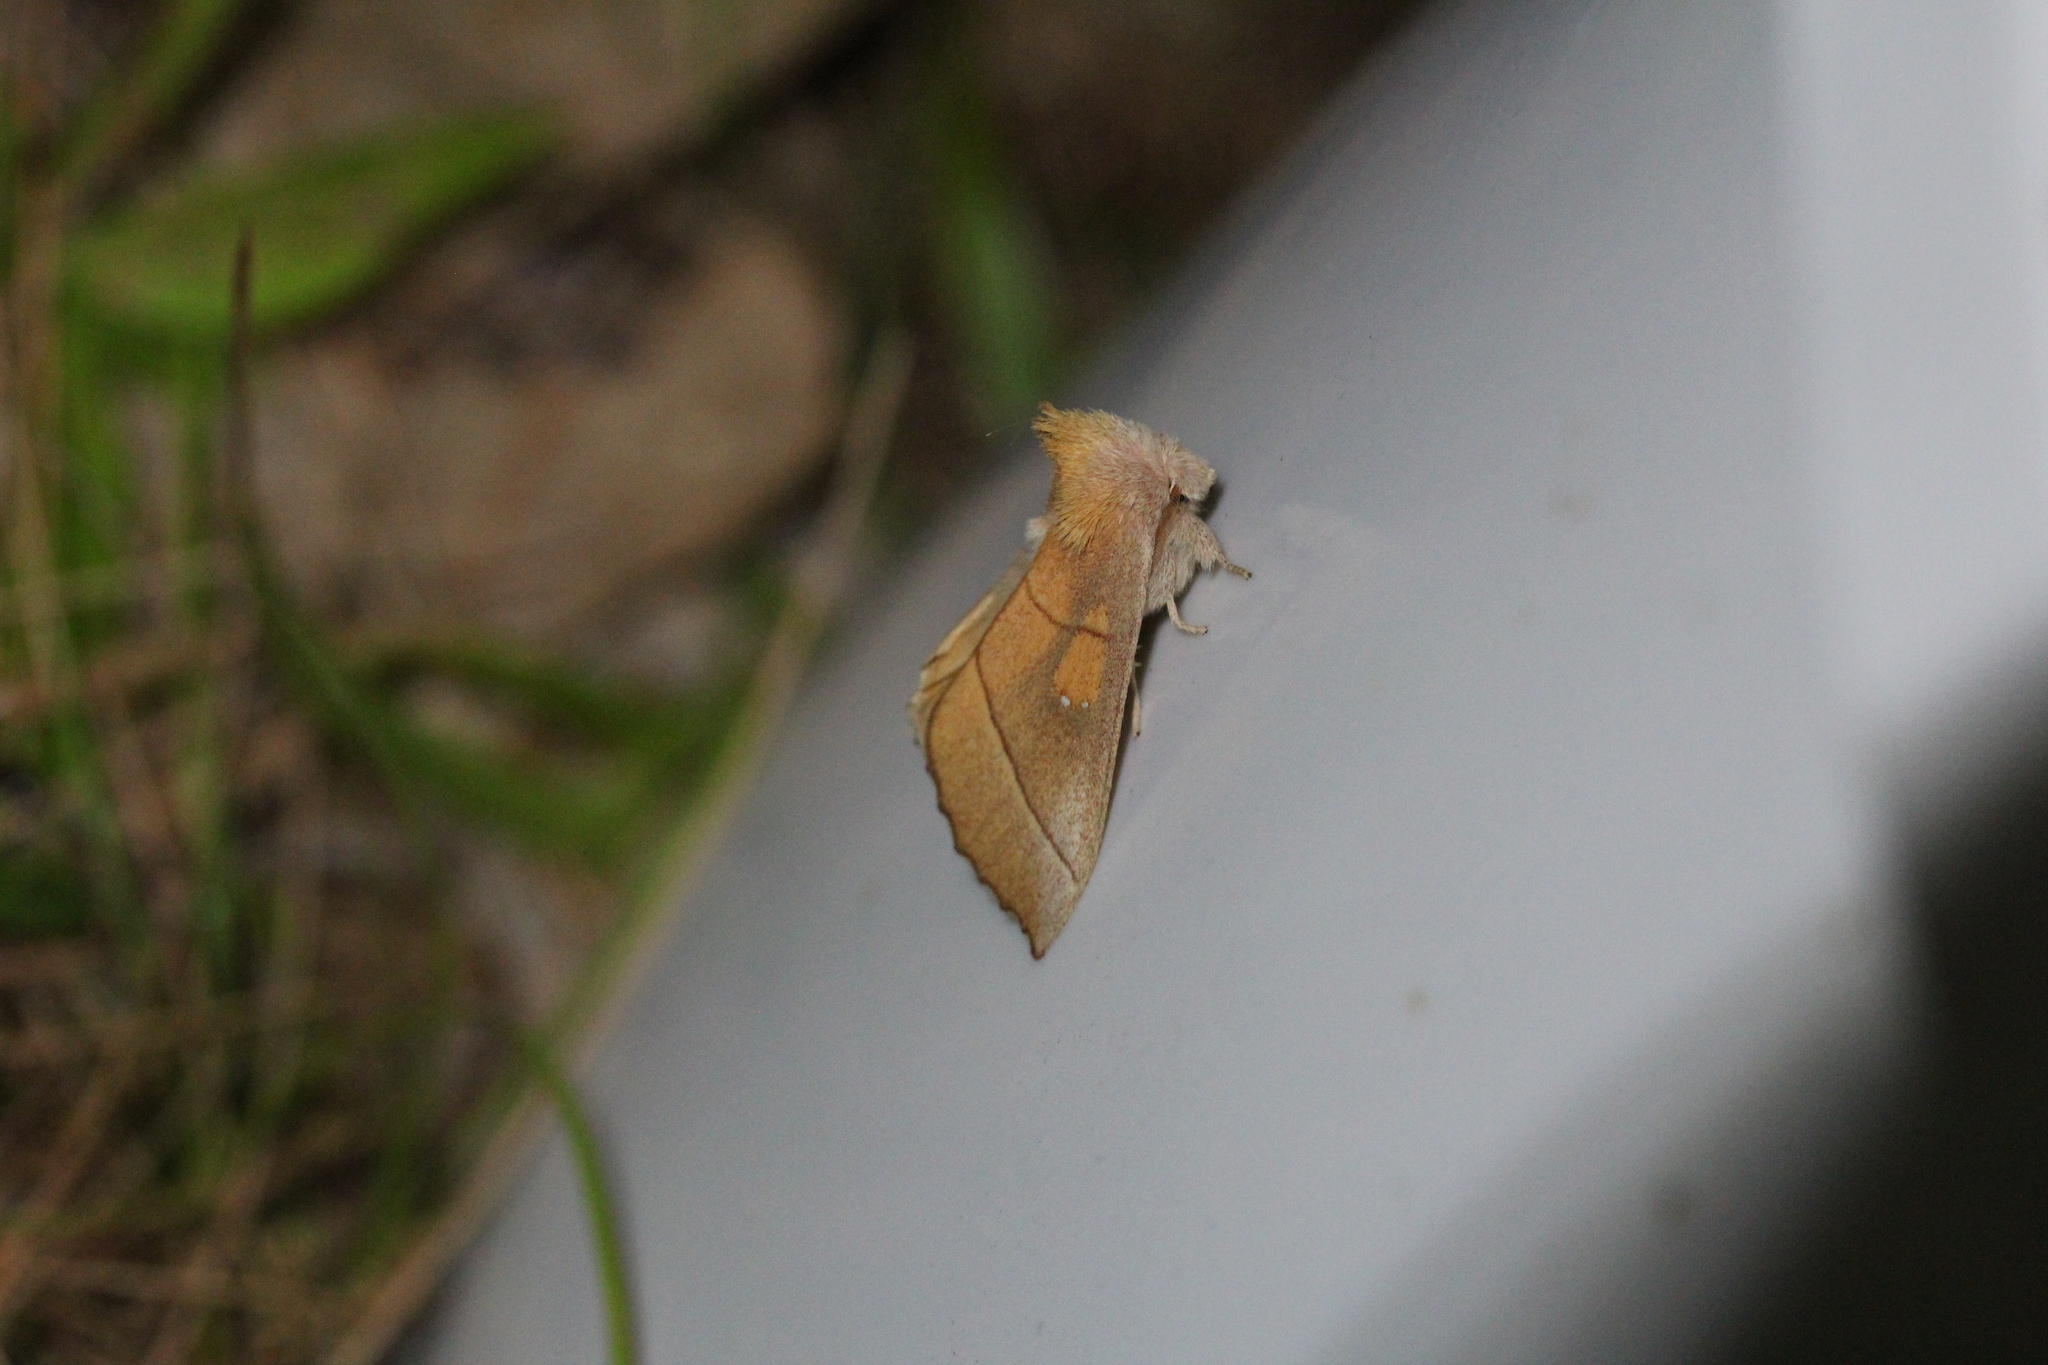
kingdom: Animalia
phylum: Arthropoda
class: Insecta
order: Lepidoptera
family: Notodontidae
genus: Nadata
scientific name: Nadata gibbosa
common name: White-dotted prominent
